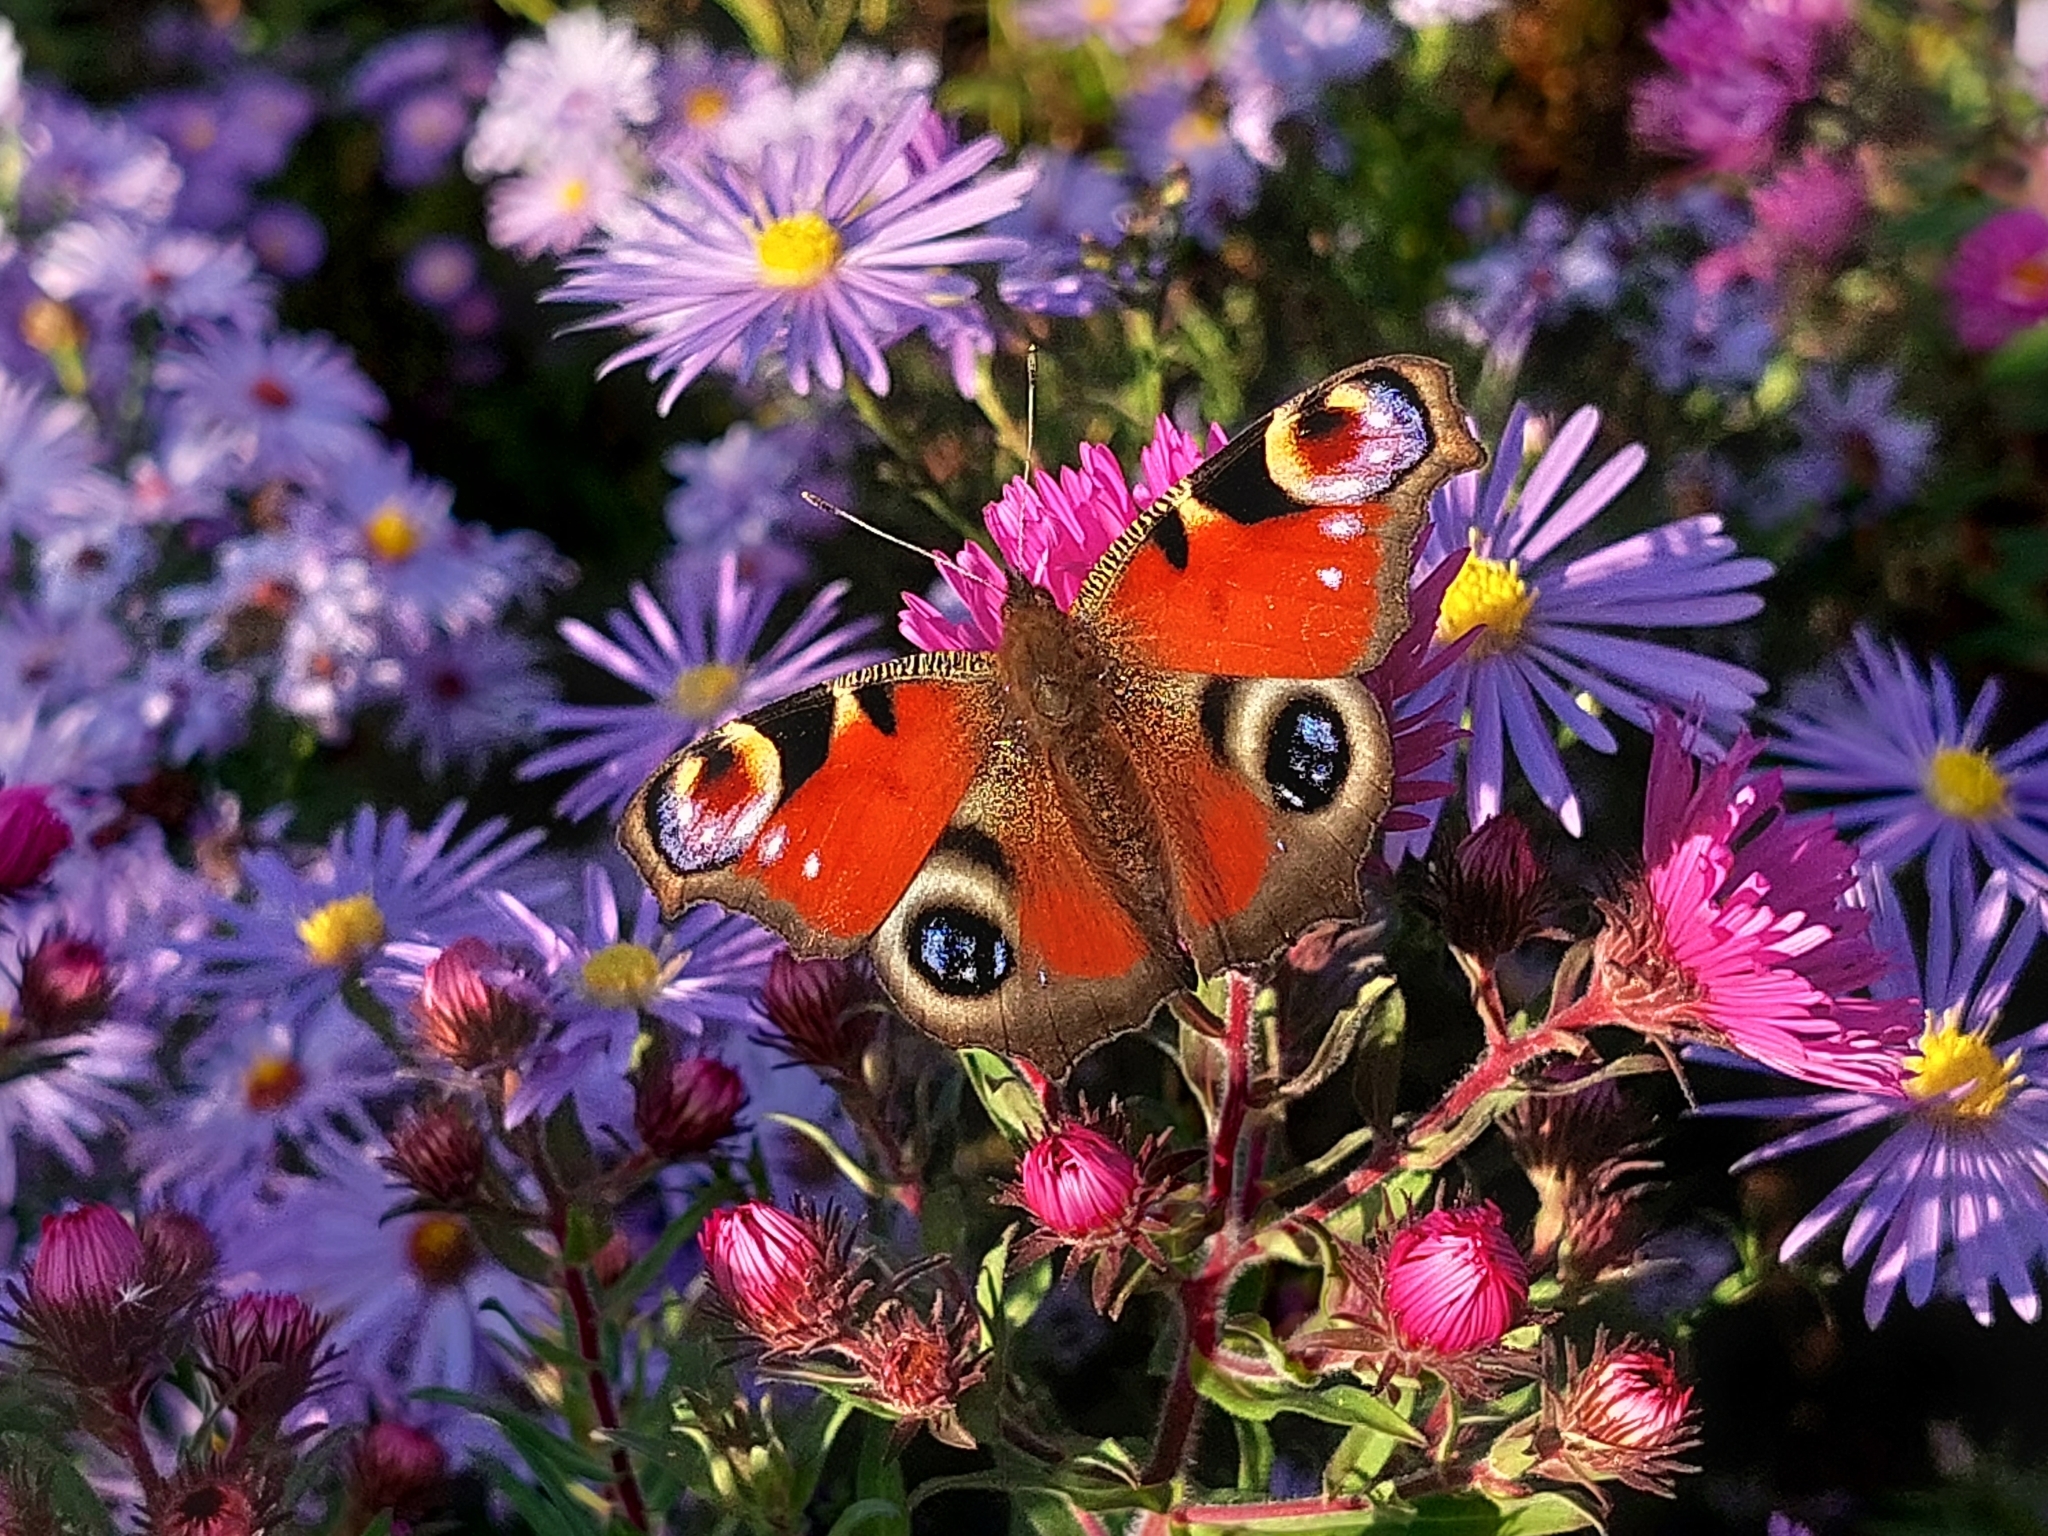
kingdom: Animalia
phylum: Arthropoda
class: Insecta
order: Lepidoptera
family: Nymphalidae
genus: Aglais
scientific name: Aglais io
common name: Peacock
